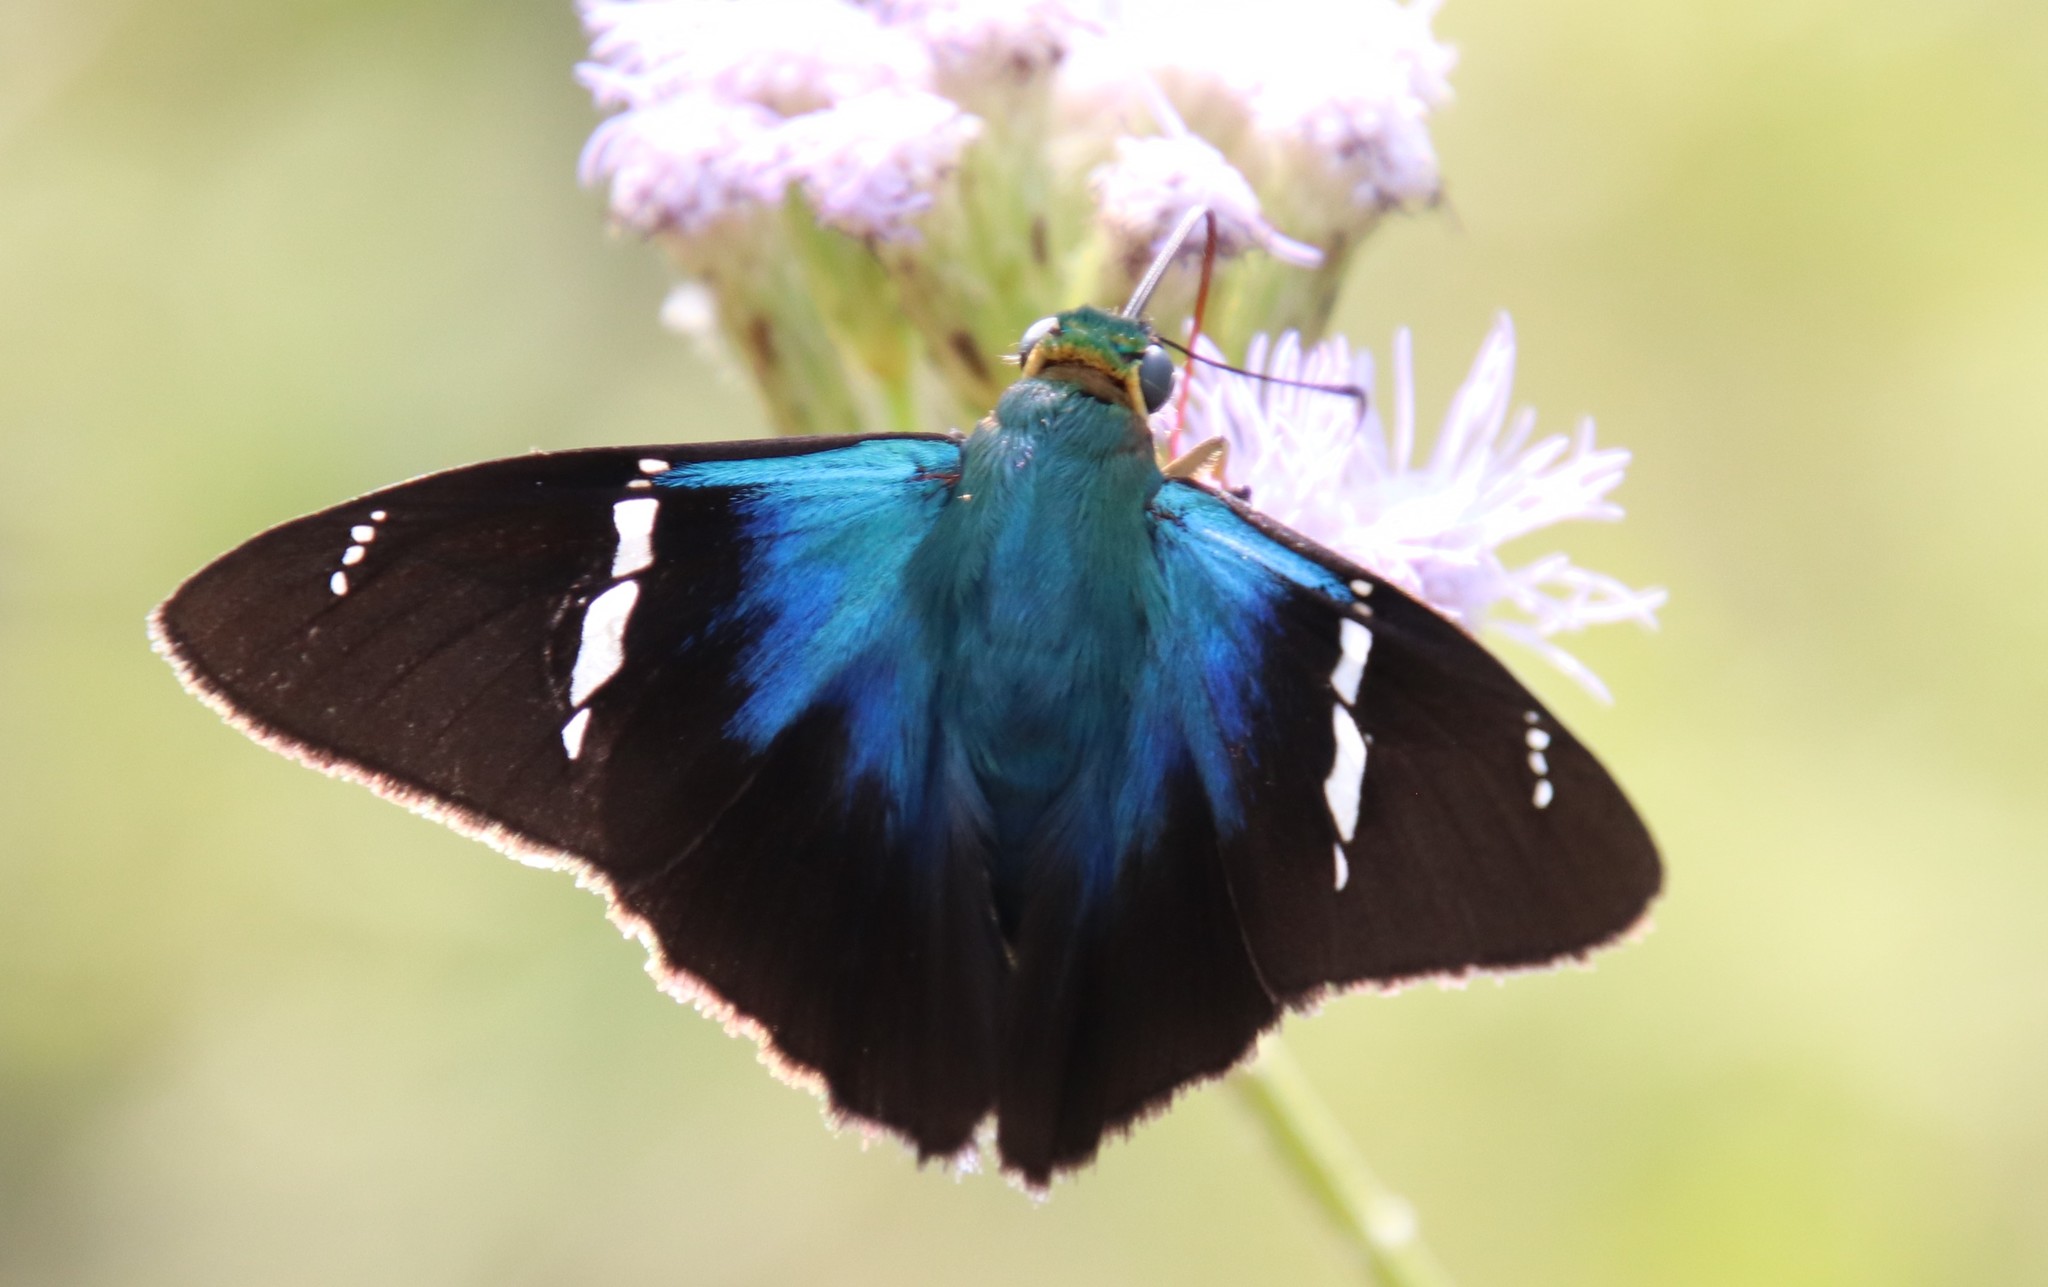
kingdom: Animalia
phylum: Arthropoda
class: Insecta
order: Lepidoptera
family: Hesperiidae
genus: Astraptes
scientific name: Astraptes fulgerator
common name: Two-barred flasher
